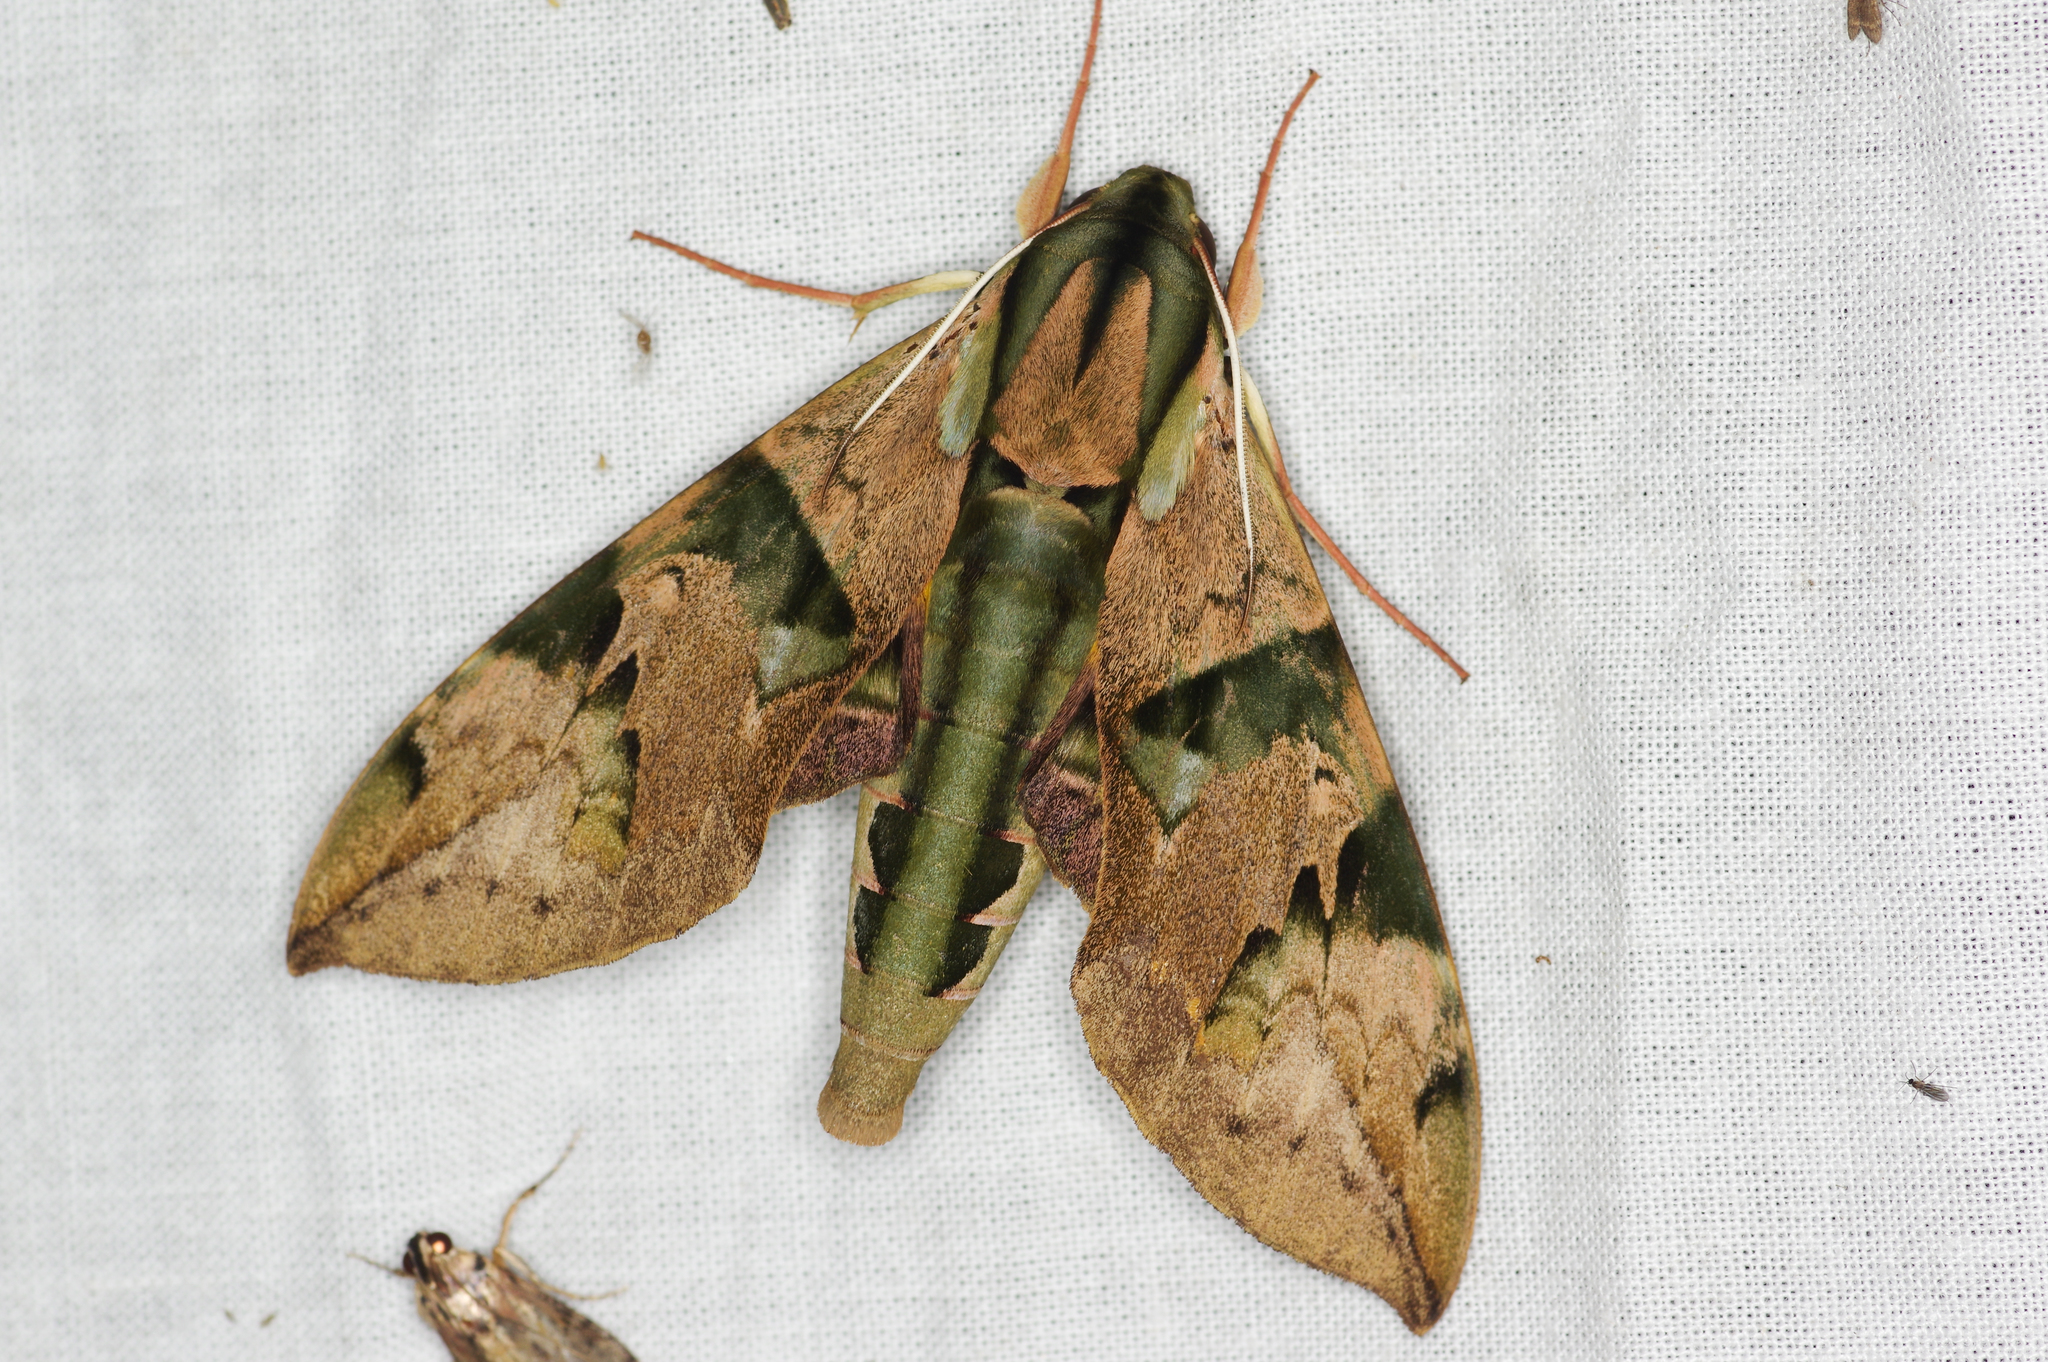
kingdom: Animalia
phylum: Arthropoda
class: Insecta
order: Lepidoptera
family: Sphingidae
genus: Eumorpha
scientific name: Eumorpha capronnieri
